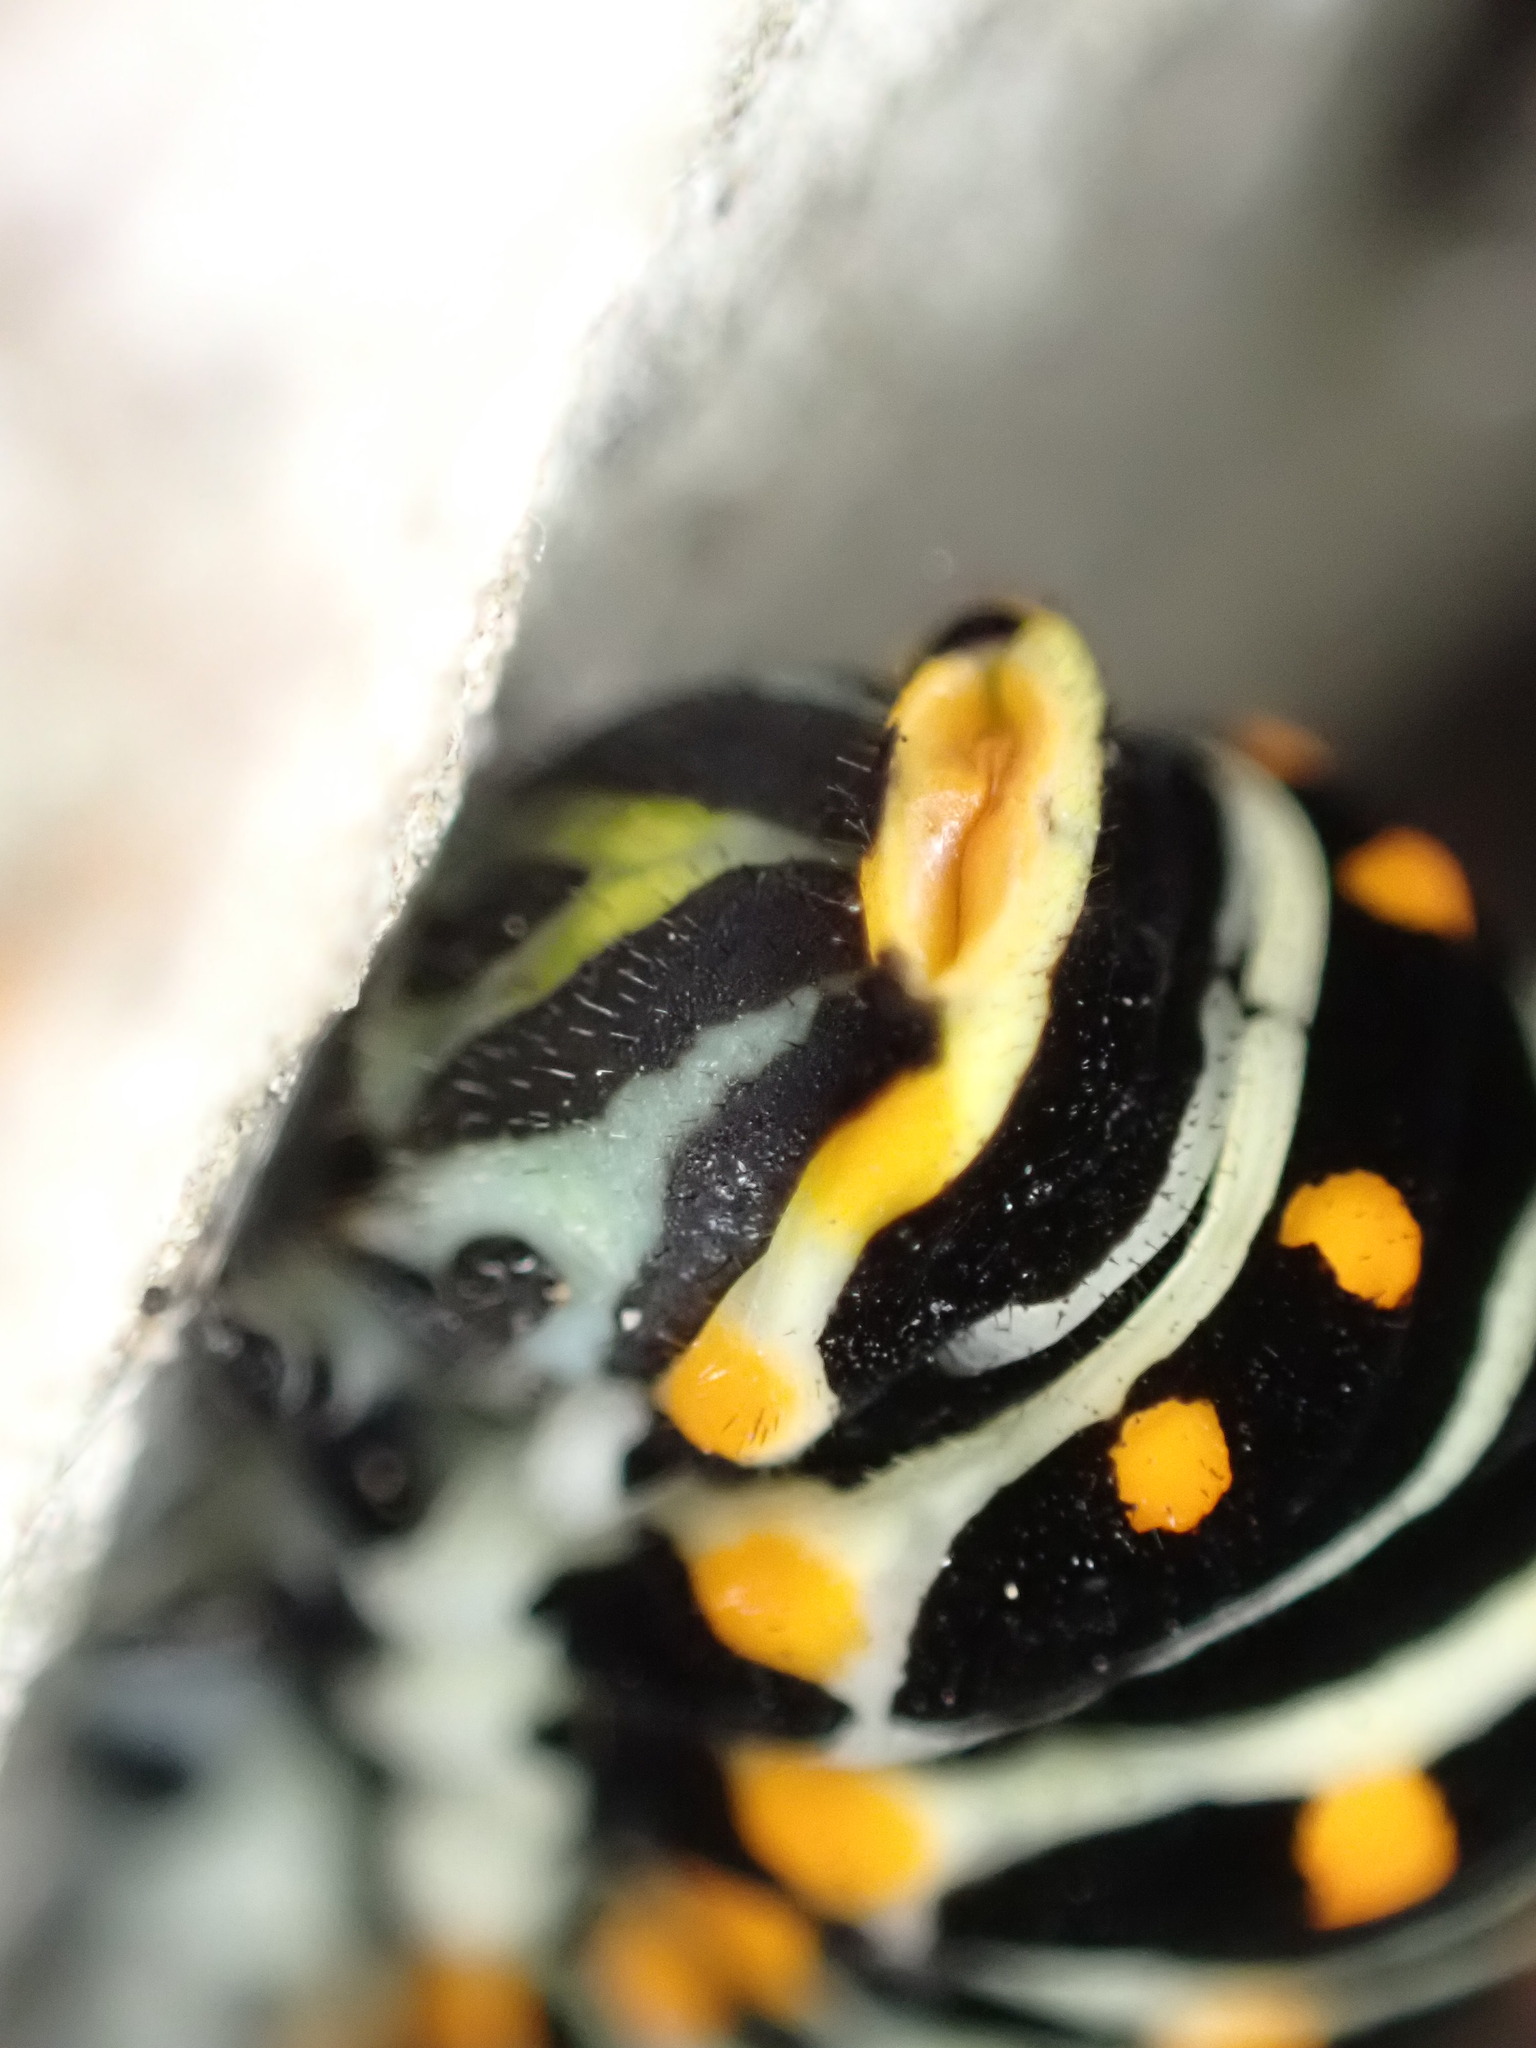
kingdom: Animalia
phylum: Arthropoda
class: Insecta
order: Lepidoptera
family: Papilionidae
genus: Papilio
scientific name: Papilio machaon
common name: Swallowtail
